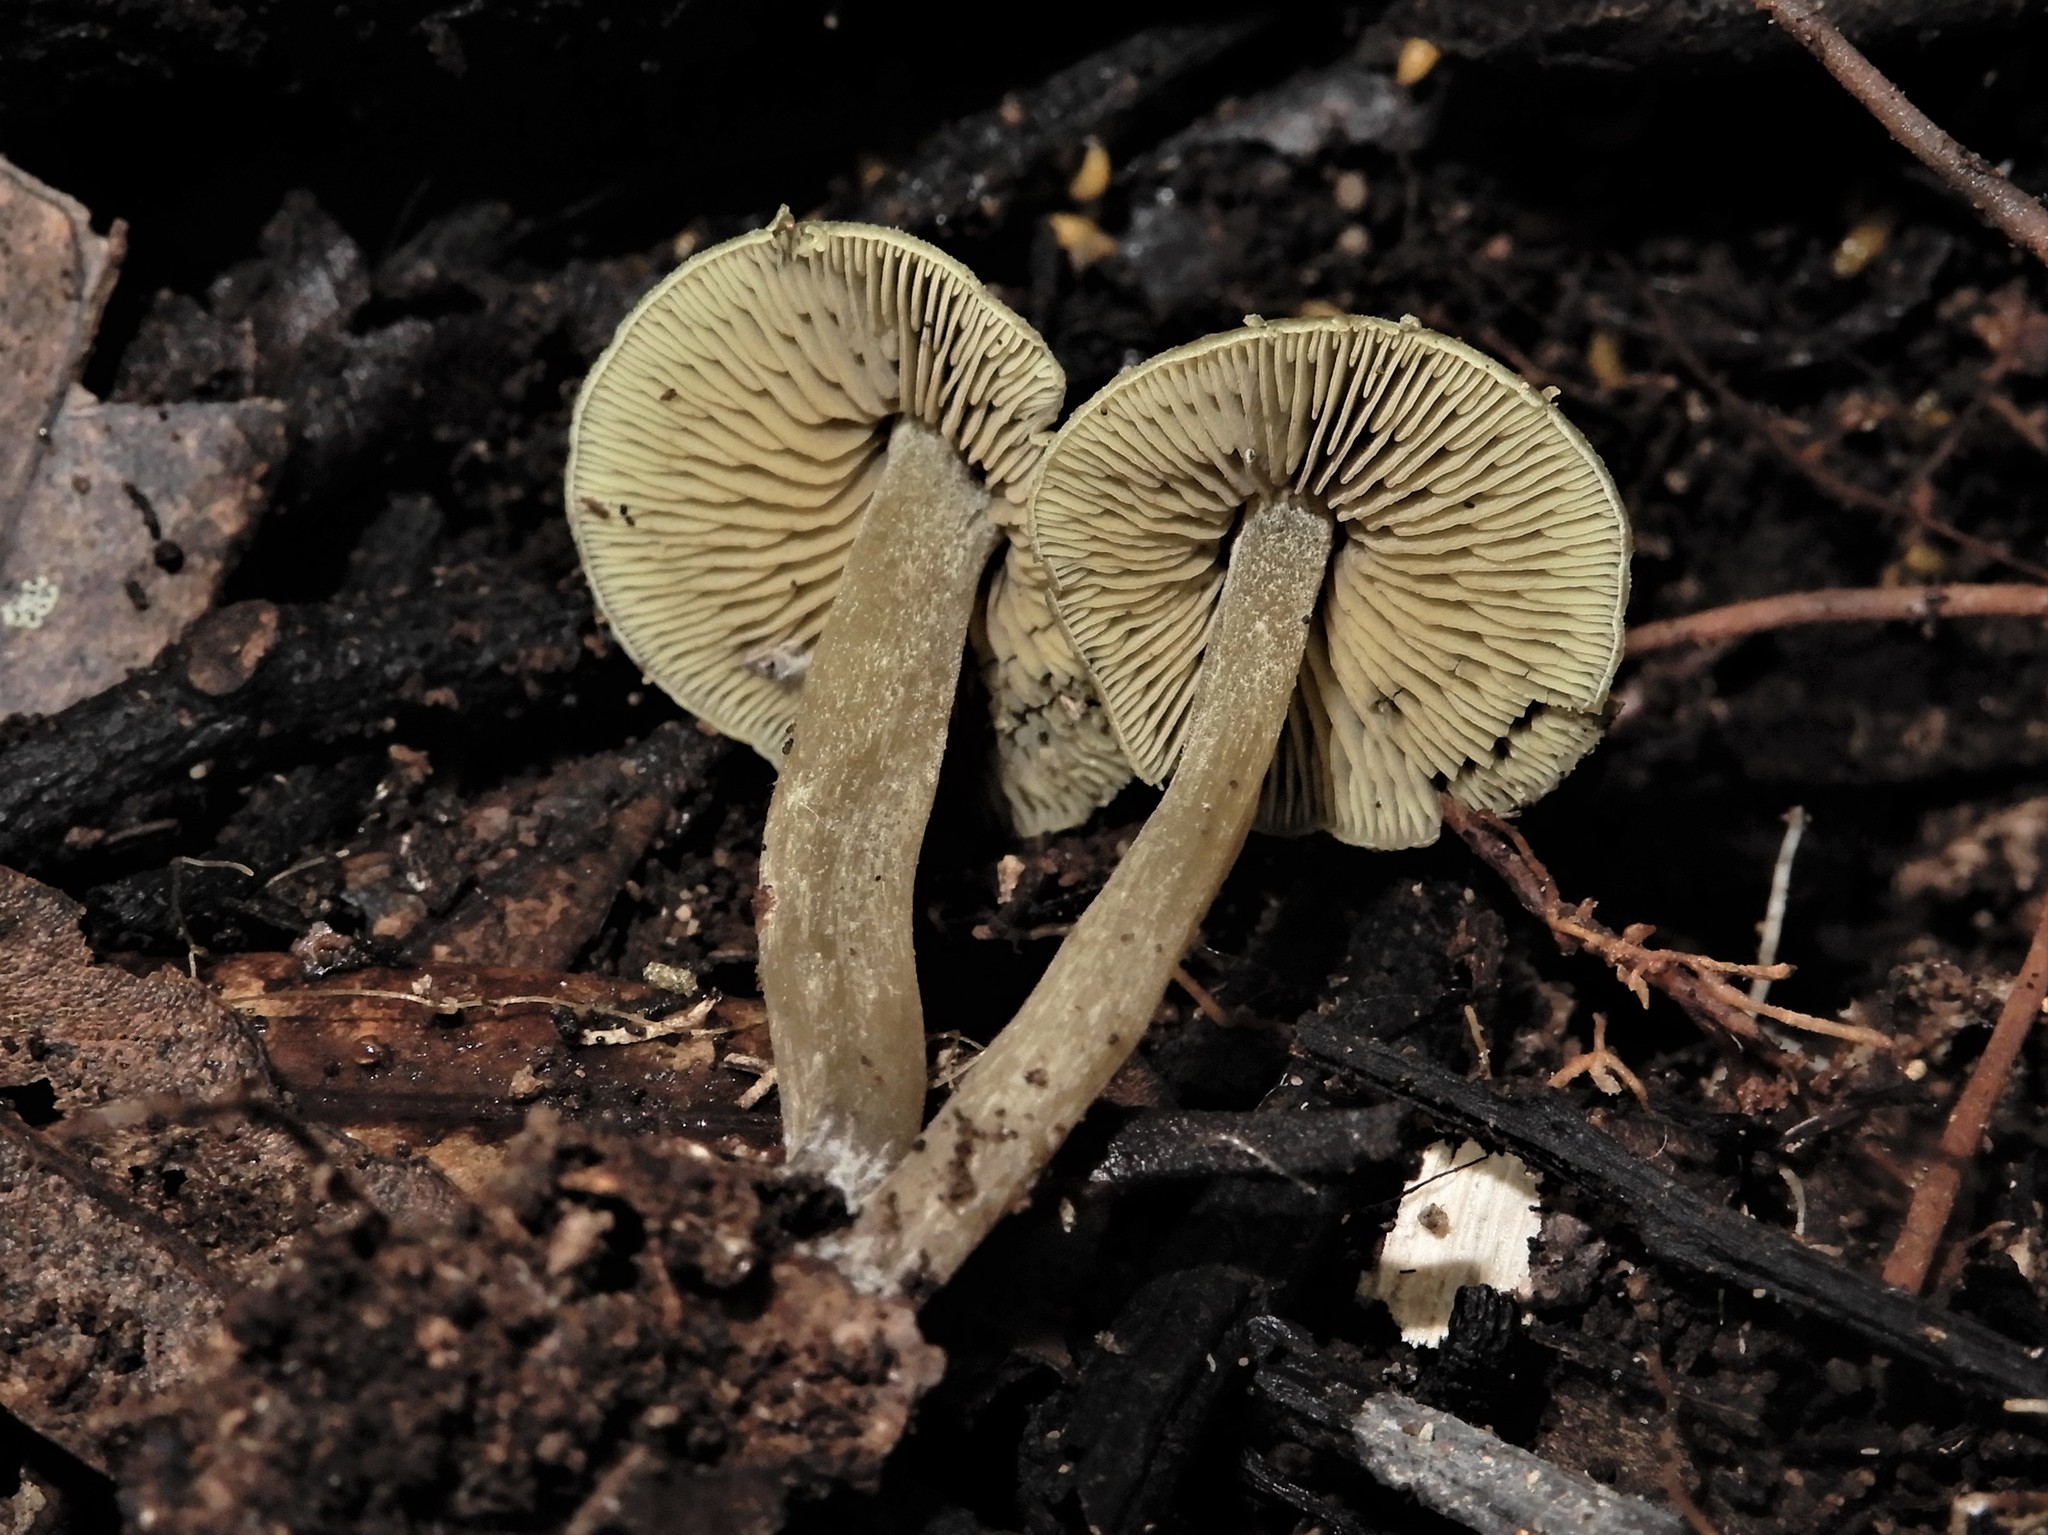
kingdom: Fungi
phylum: Basidiomycota
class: Agaricomycetes
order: Agaricales
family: Lyophyllaceae
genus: Tephrocybella
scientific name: Tephrocybella
